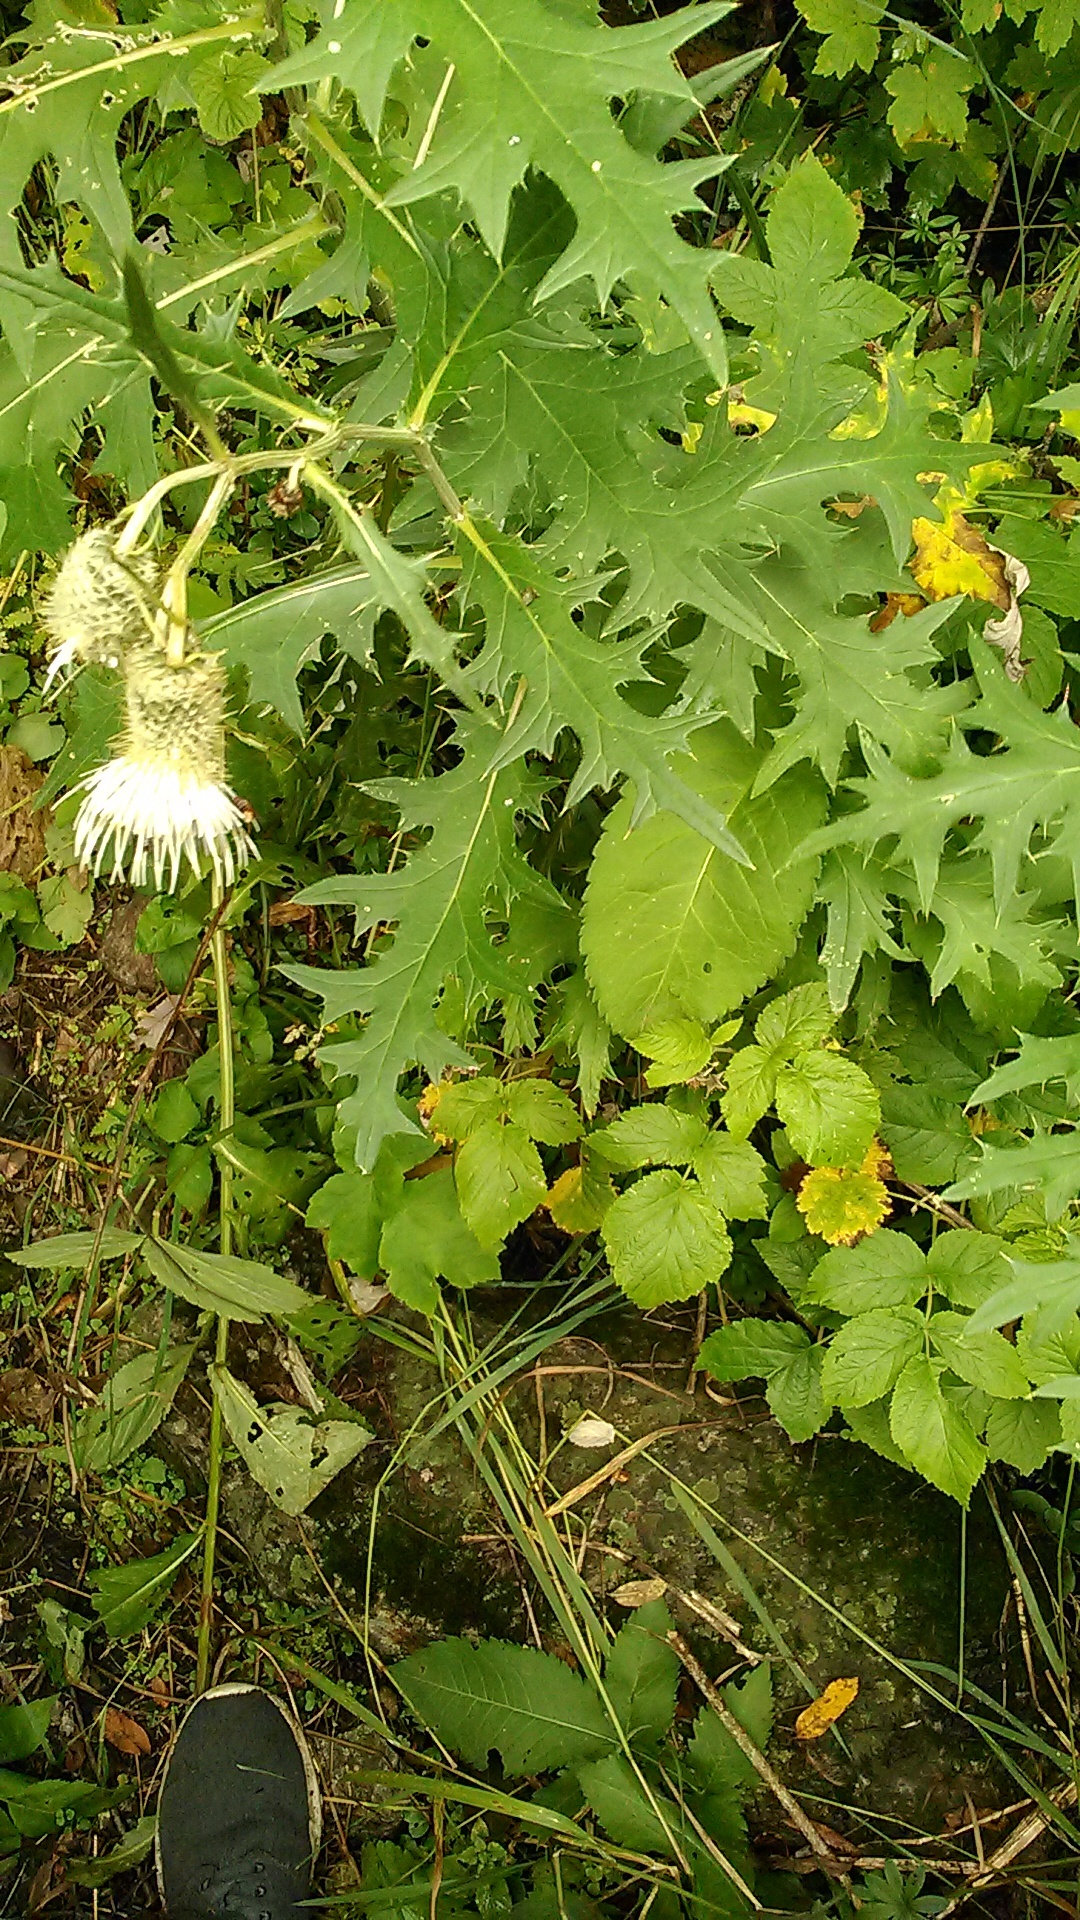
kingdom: Plantae
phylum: Tracheophyta
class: Magnoliopsida
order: Asterales
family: Asteraceae
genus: Lophiolepis
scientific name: Lophiolepis chlorocoma
